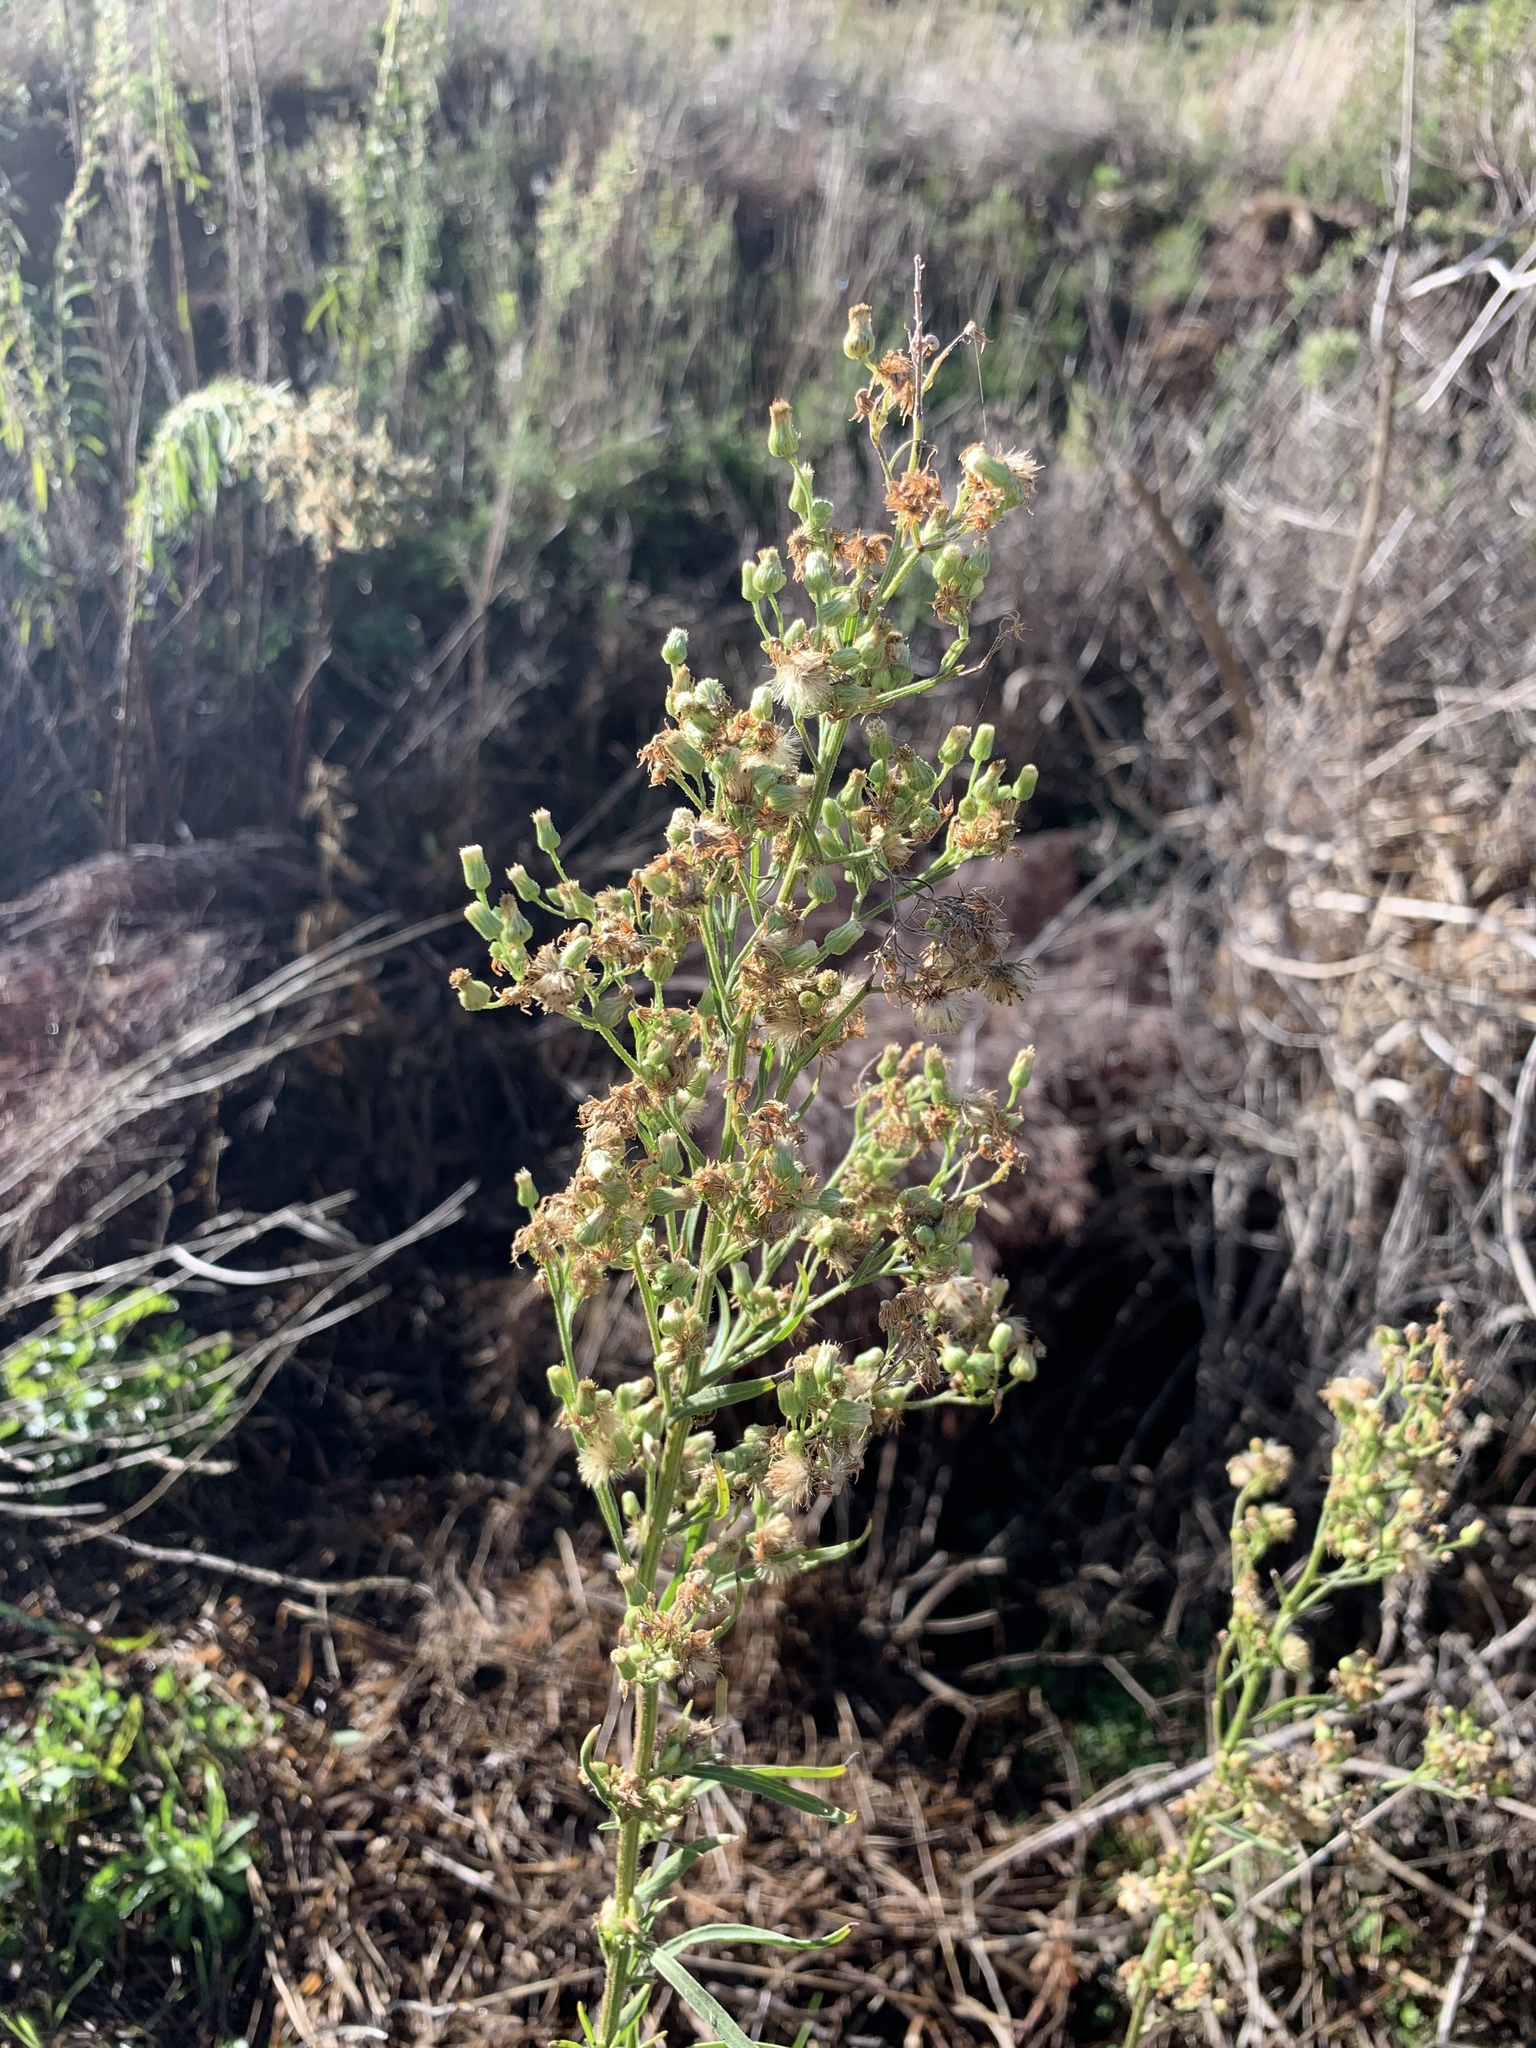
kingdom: Plantae
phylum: Tracheophyta
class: Magnoliopsida
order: Asterales
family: Asteraceae
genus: Erigeron
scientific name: Erigeron sumatrensis
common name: Daisy
